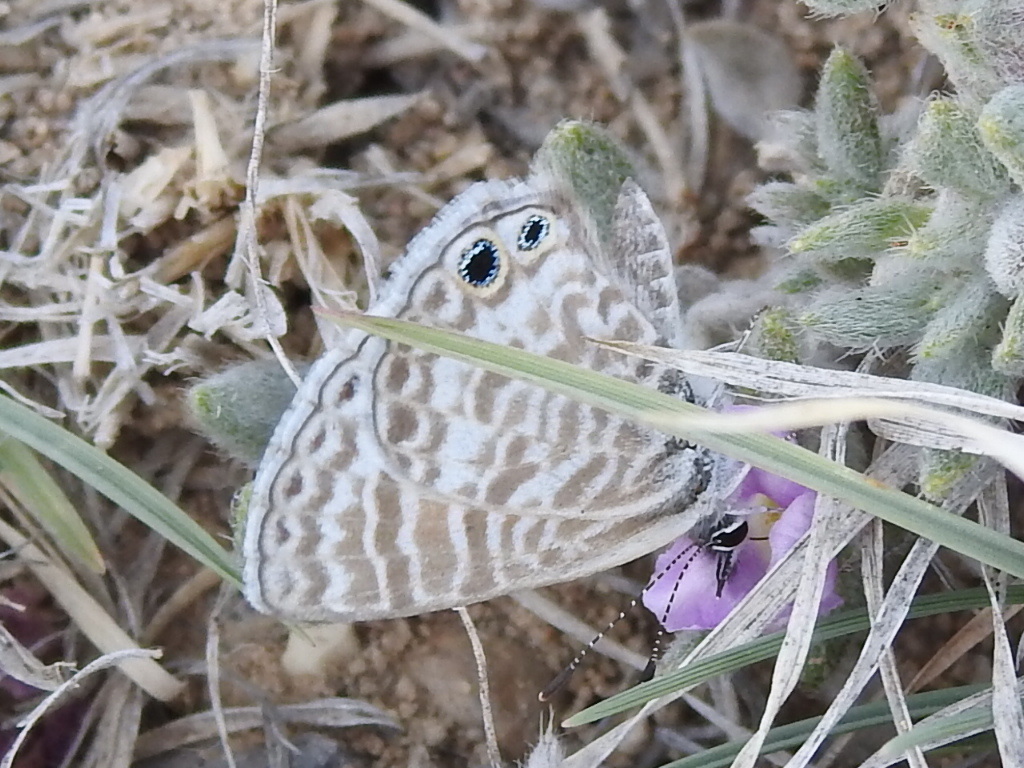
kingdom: Animalia
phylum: Arthropoda
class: Insecta
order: Lepidoptera
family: Lycaenidae
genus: Leptotes
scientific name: Leptotes marina
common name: Marine blue
